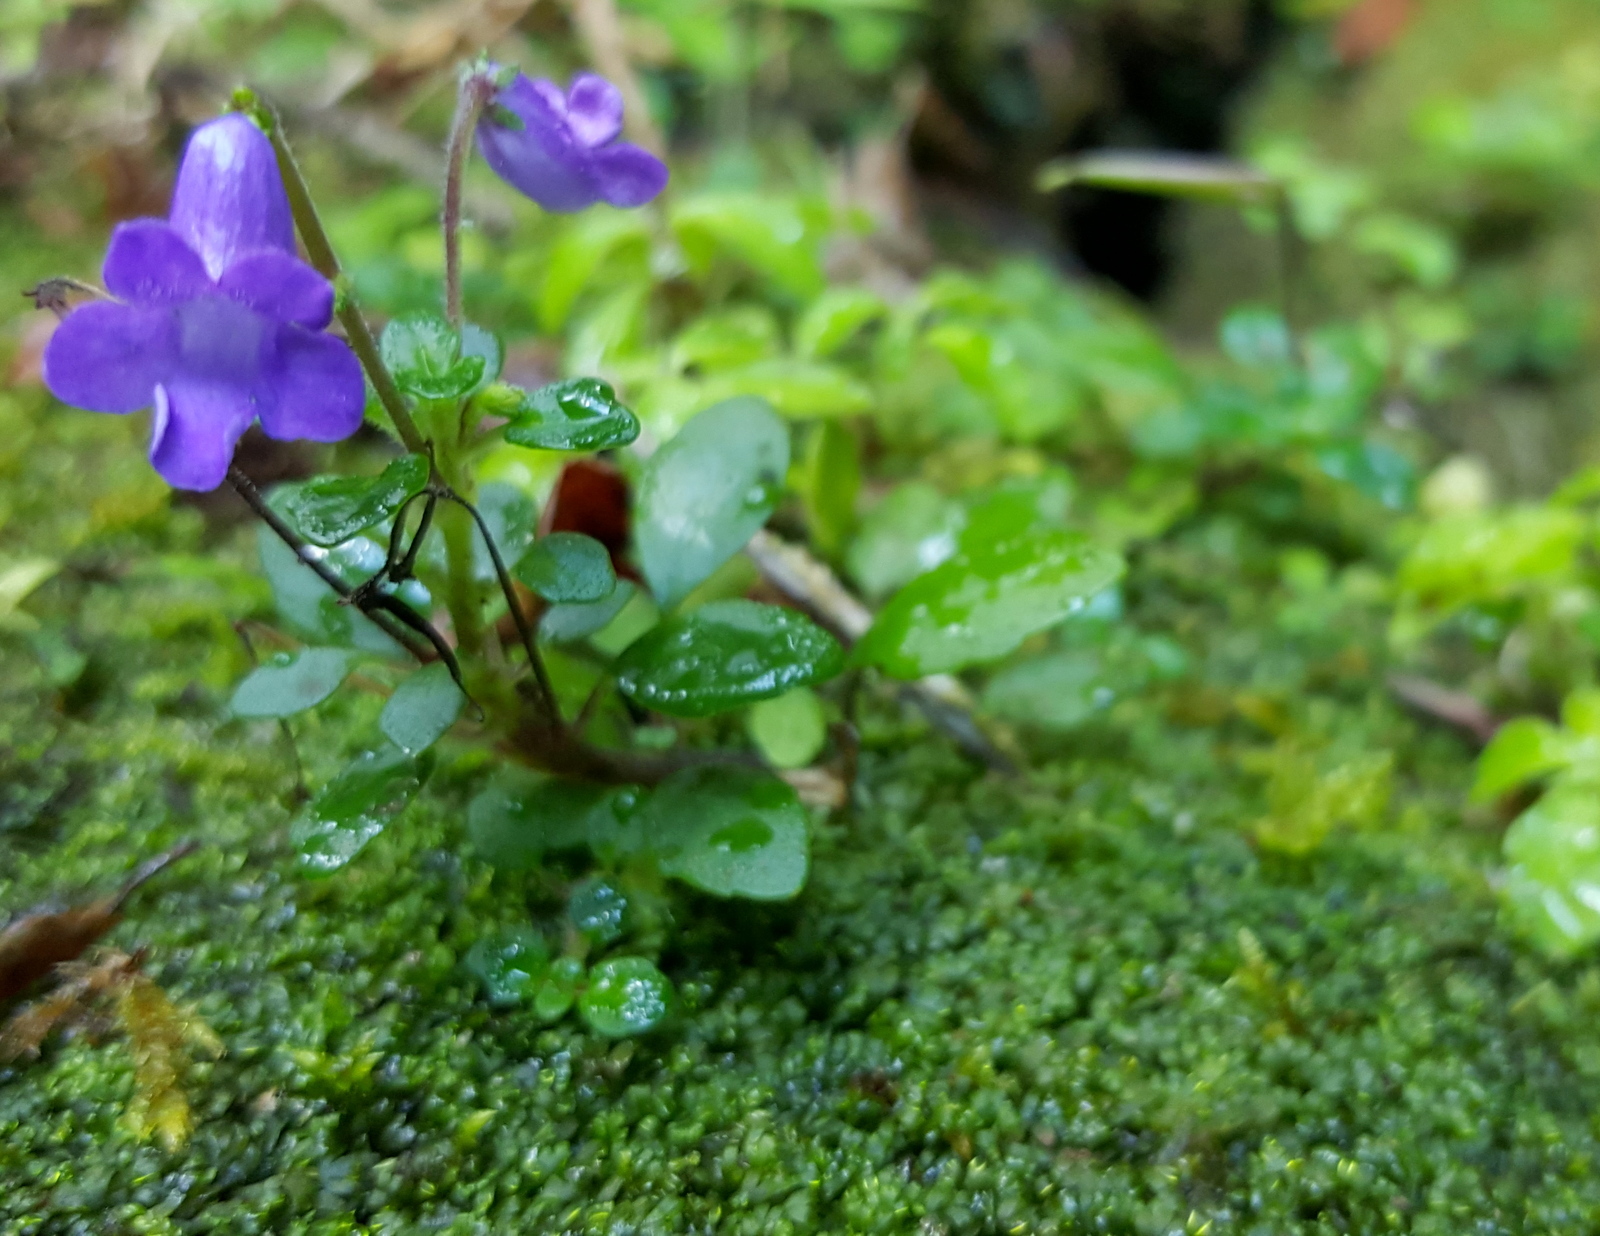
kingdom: Plantae
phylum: Tracheophyta
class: Magnoliopsida
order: Lamiales
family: Gesneriaceae
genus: Streptocarpus
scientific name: Streptocarpus madagascaricus
